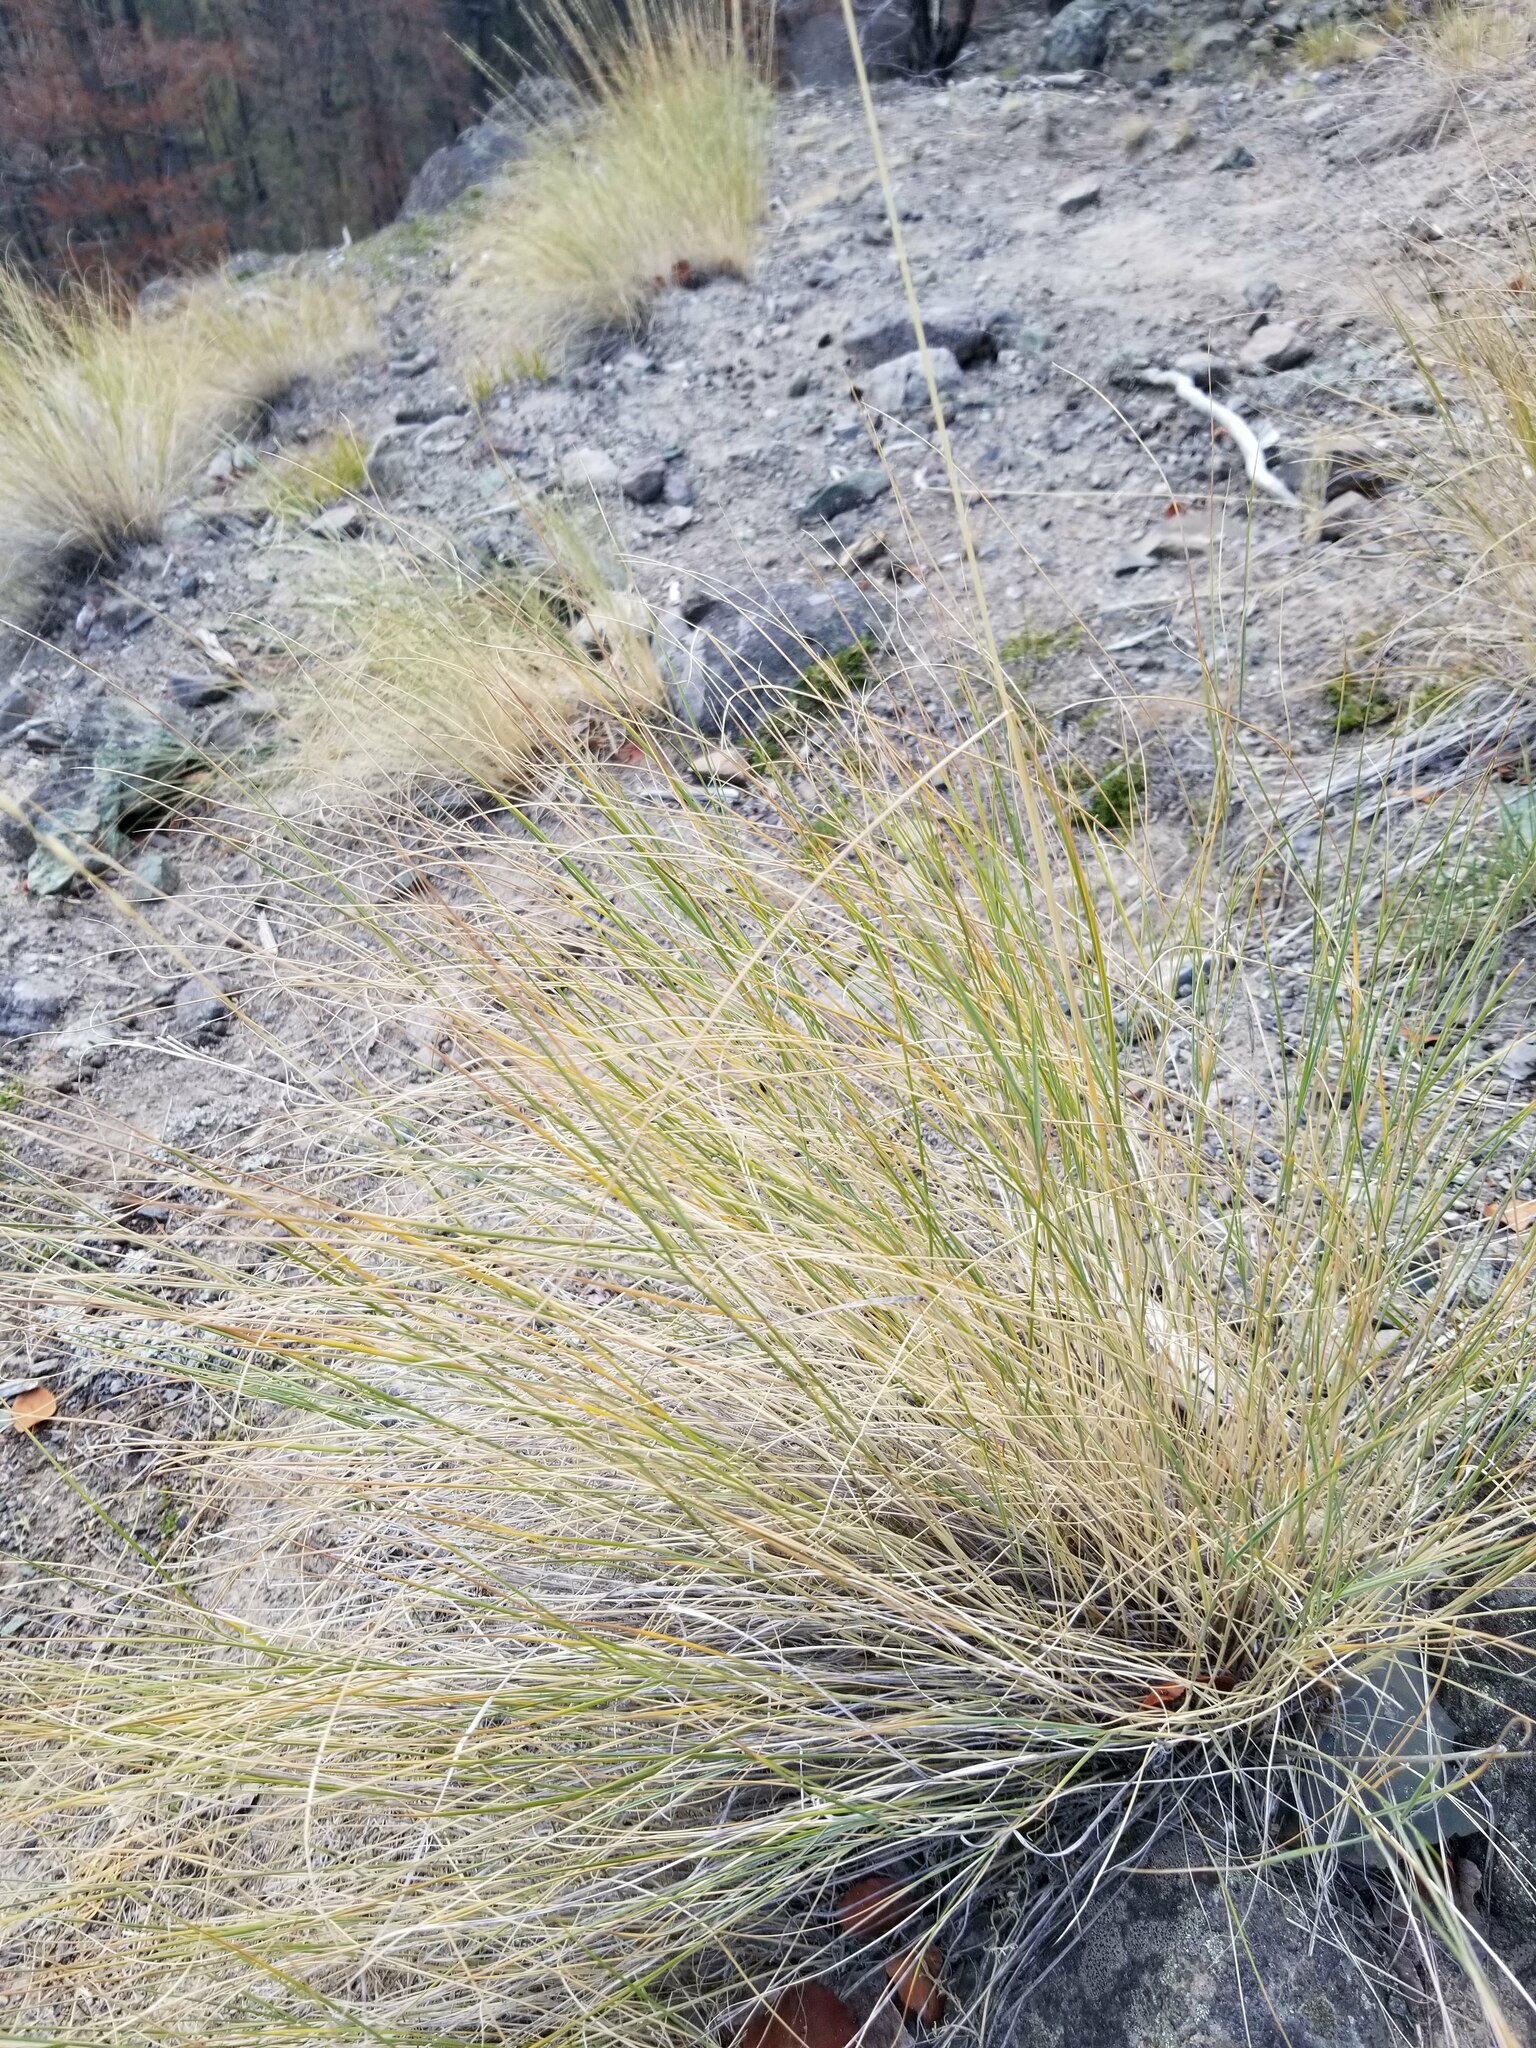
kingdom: Plantae
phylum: Tracheophyta
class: Liliopsida
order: Poales
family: Poaceae
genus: Pseudoroegneria
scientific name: Pseudoroegneria spicata
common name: Bluebunch wheatgrass
